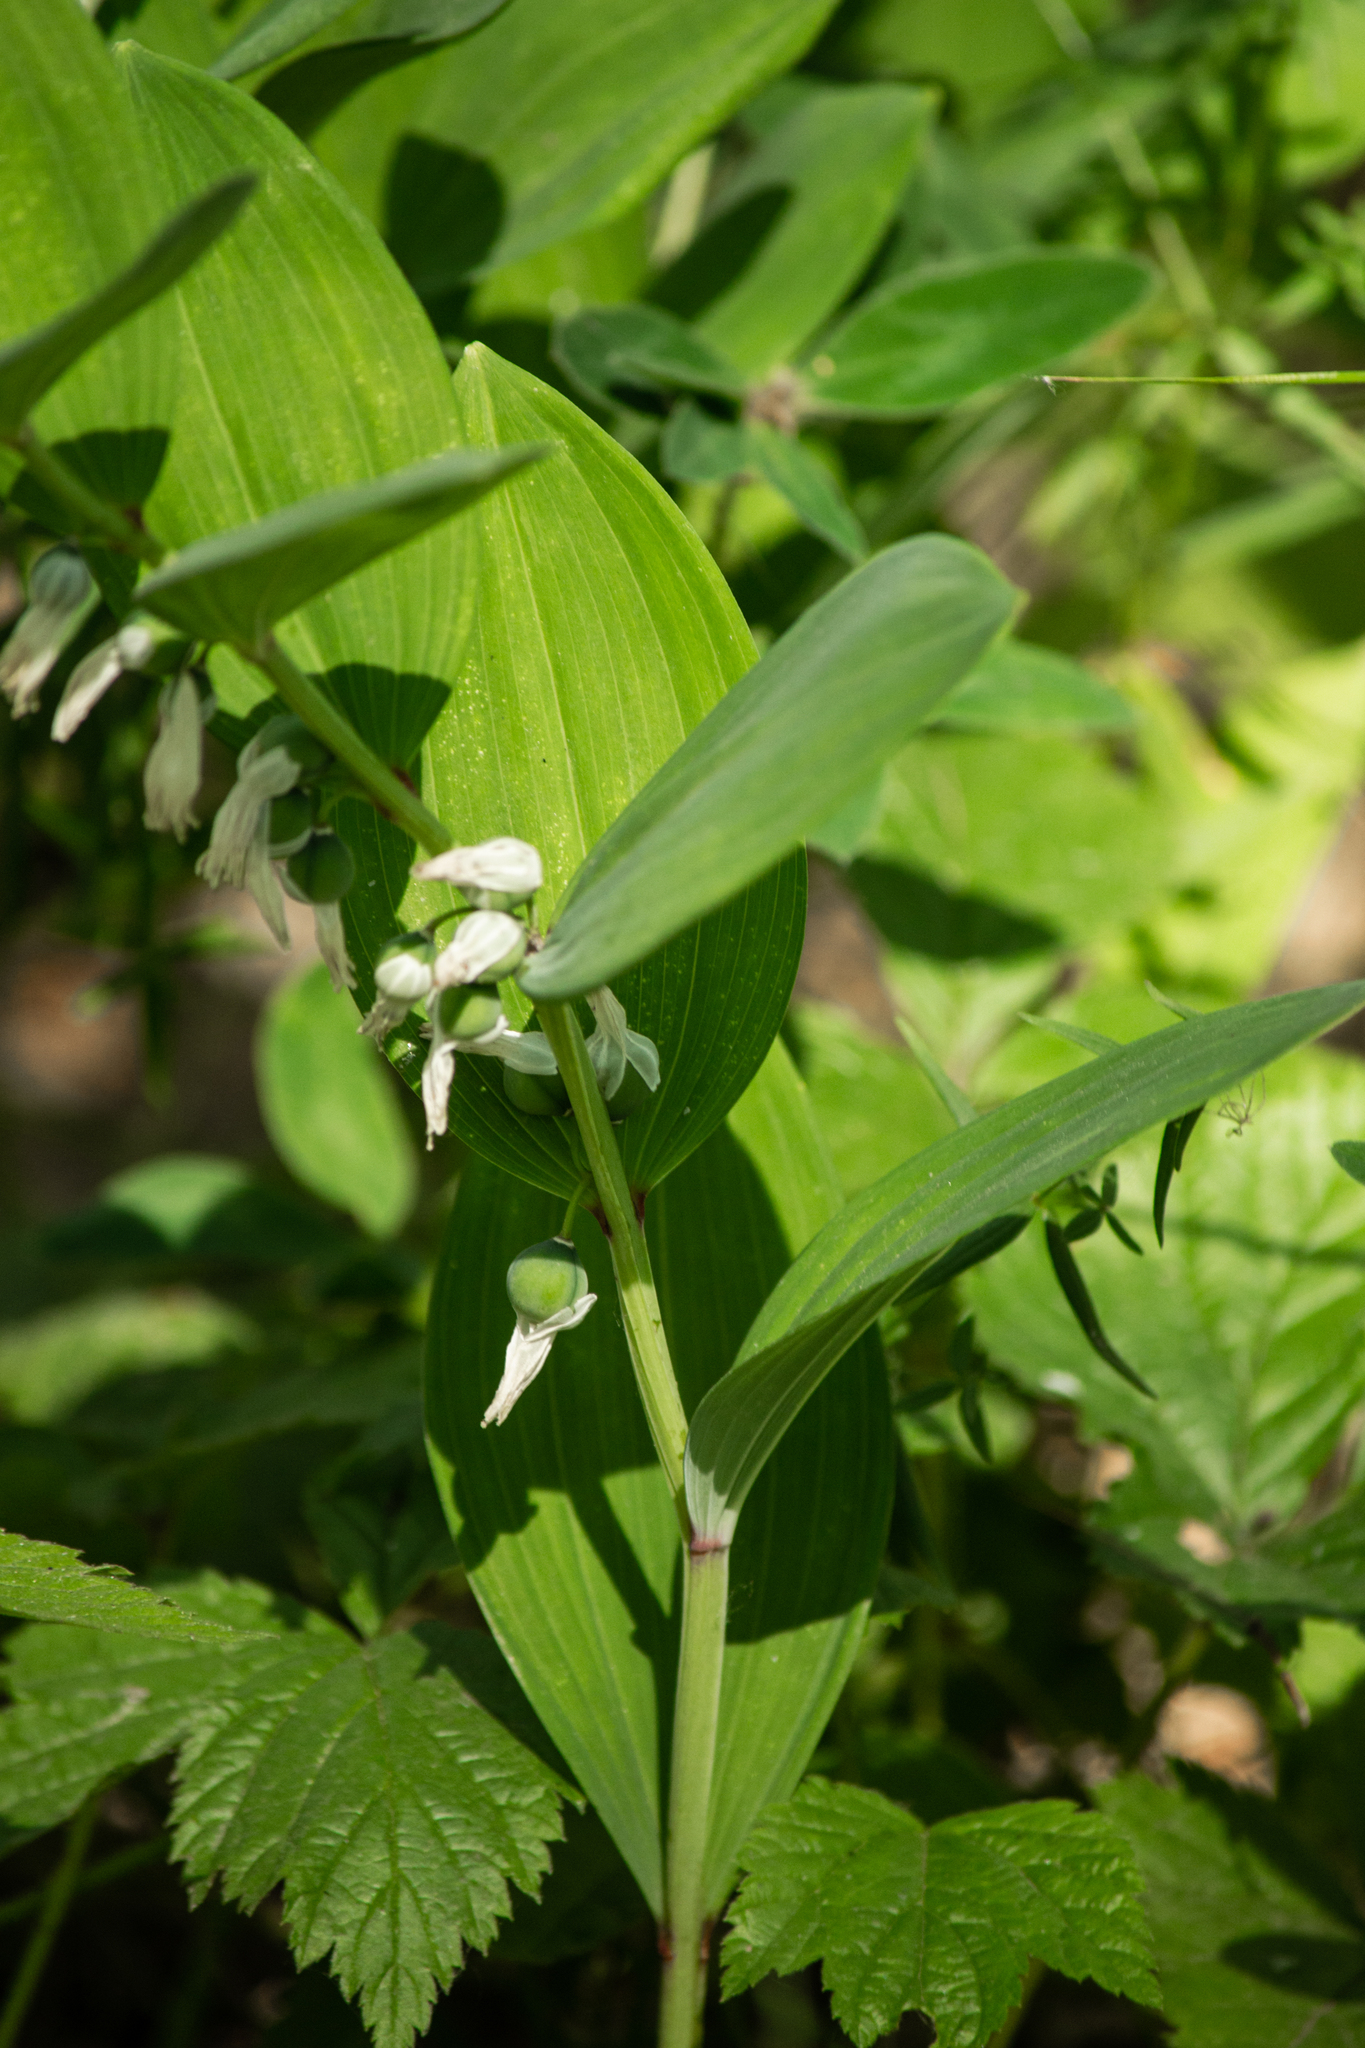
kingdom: Plantae
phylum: Tracheophyta
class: Liliopsida
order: Asparagales
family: Asparagaceae
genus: Polygonatum
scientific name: Polygonatum odoratum
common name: Angular solomon's-seal
